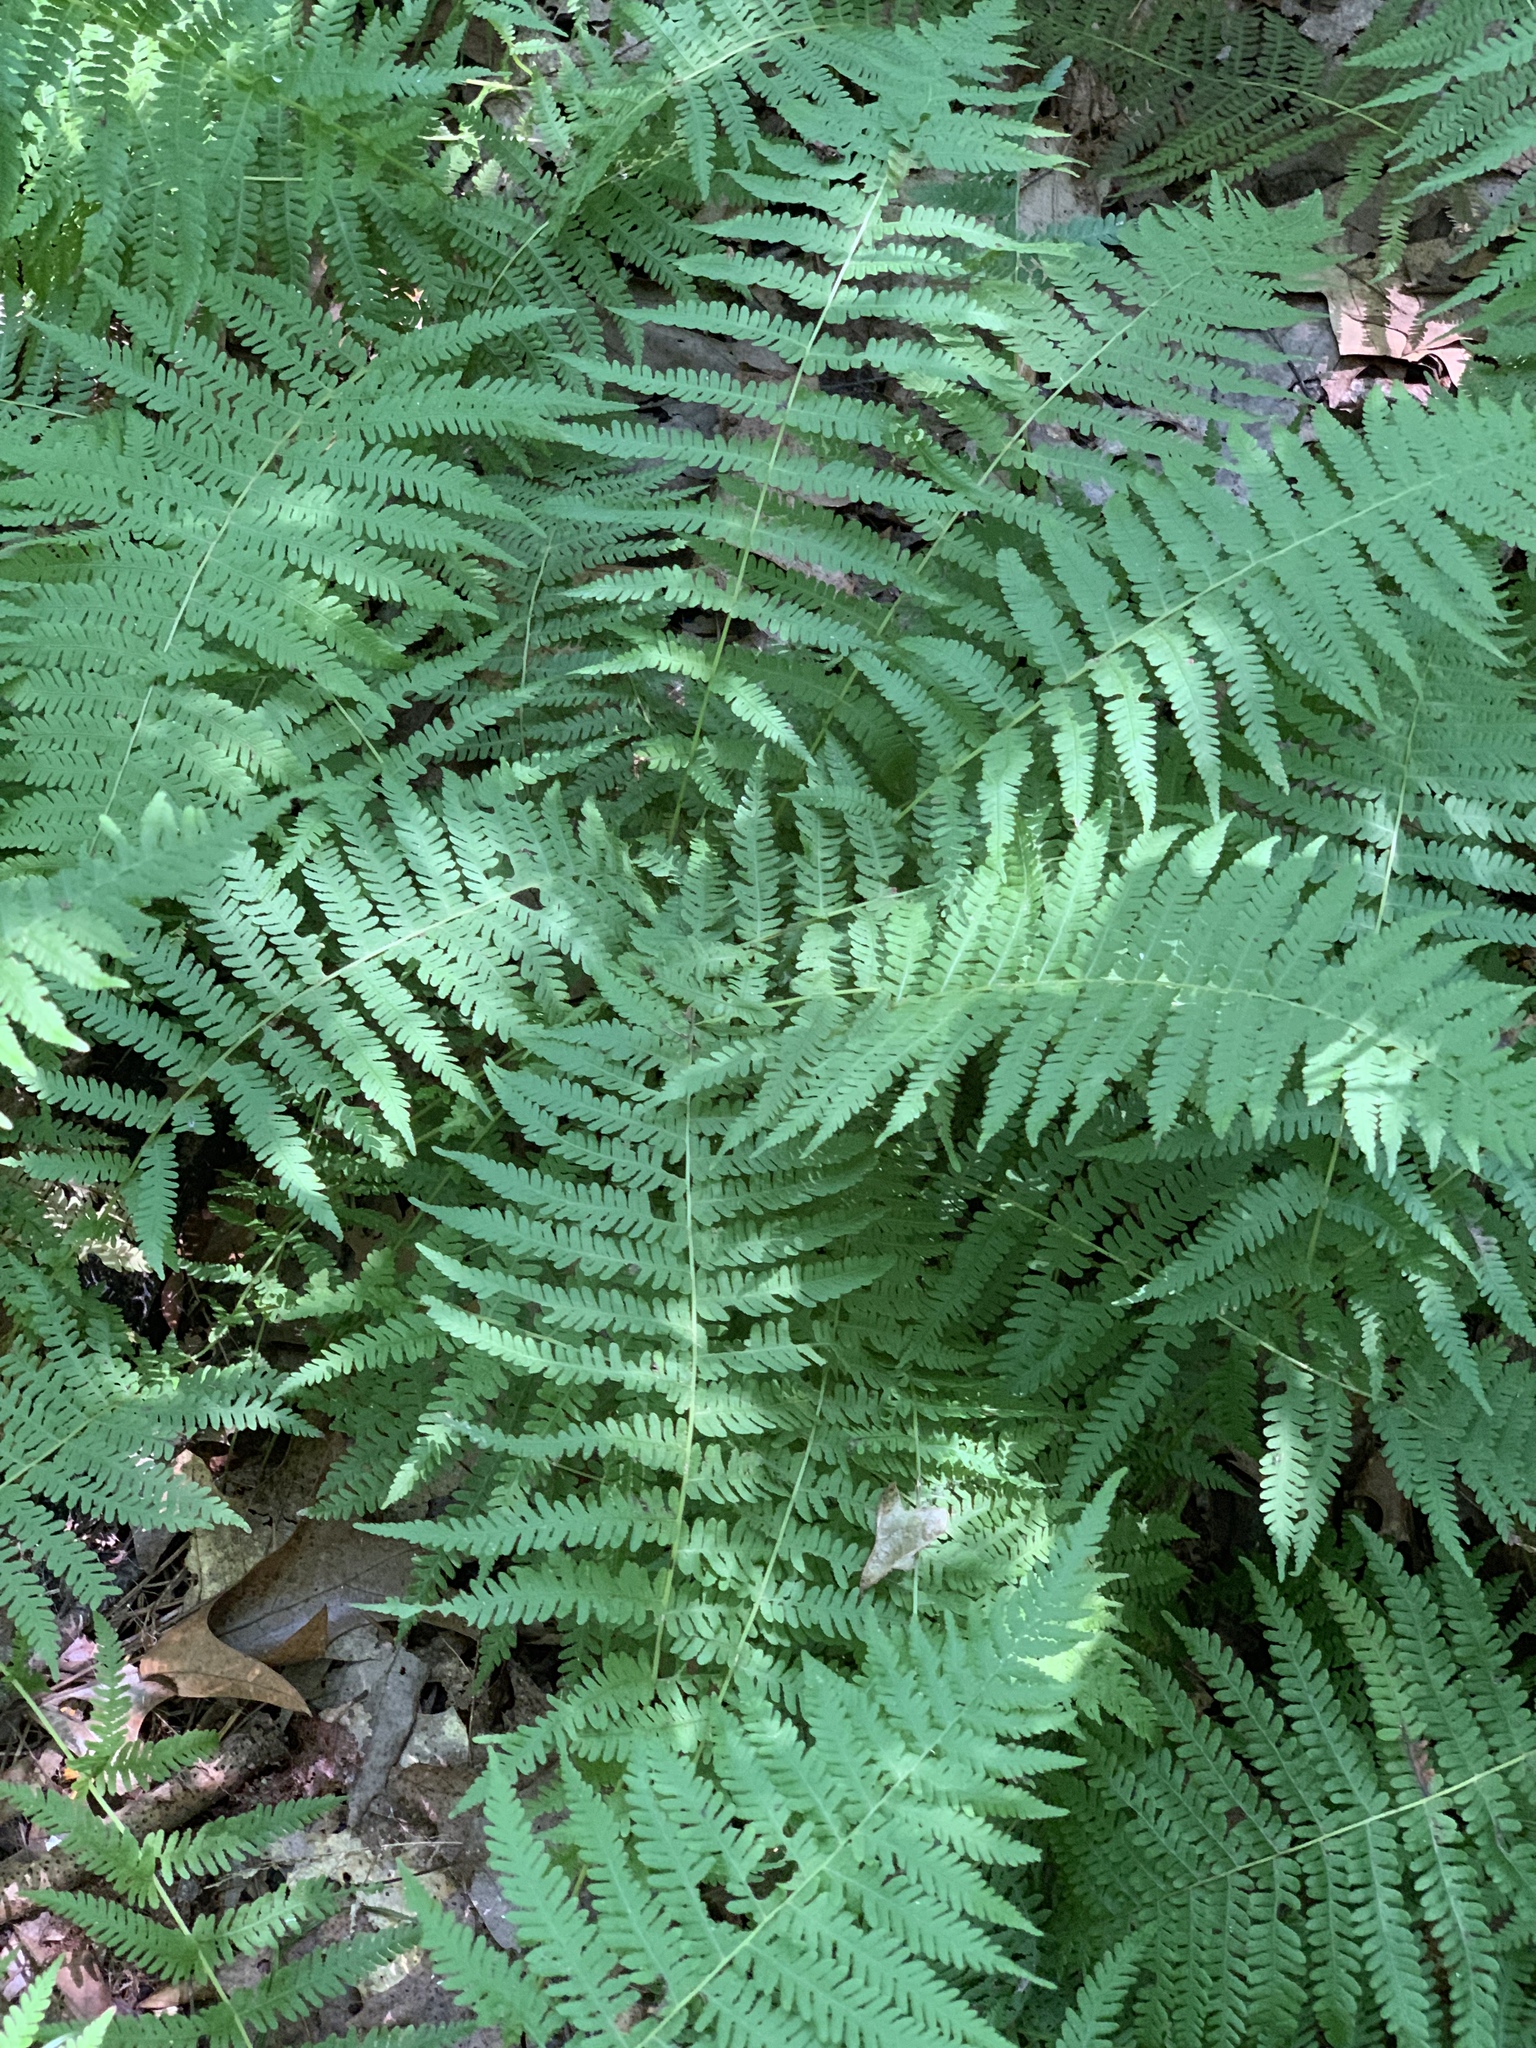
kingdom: Plantae
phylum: Tracheophyta
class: Polypodiopsida
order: Polypodiales
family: Thelypteridaceae
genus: Amauropelta
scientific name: Amauropelta noveboracensis
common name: New york fern
